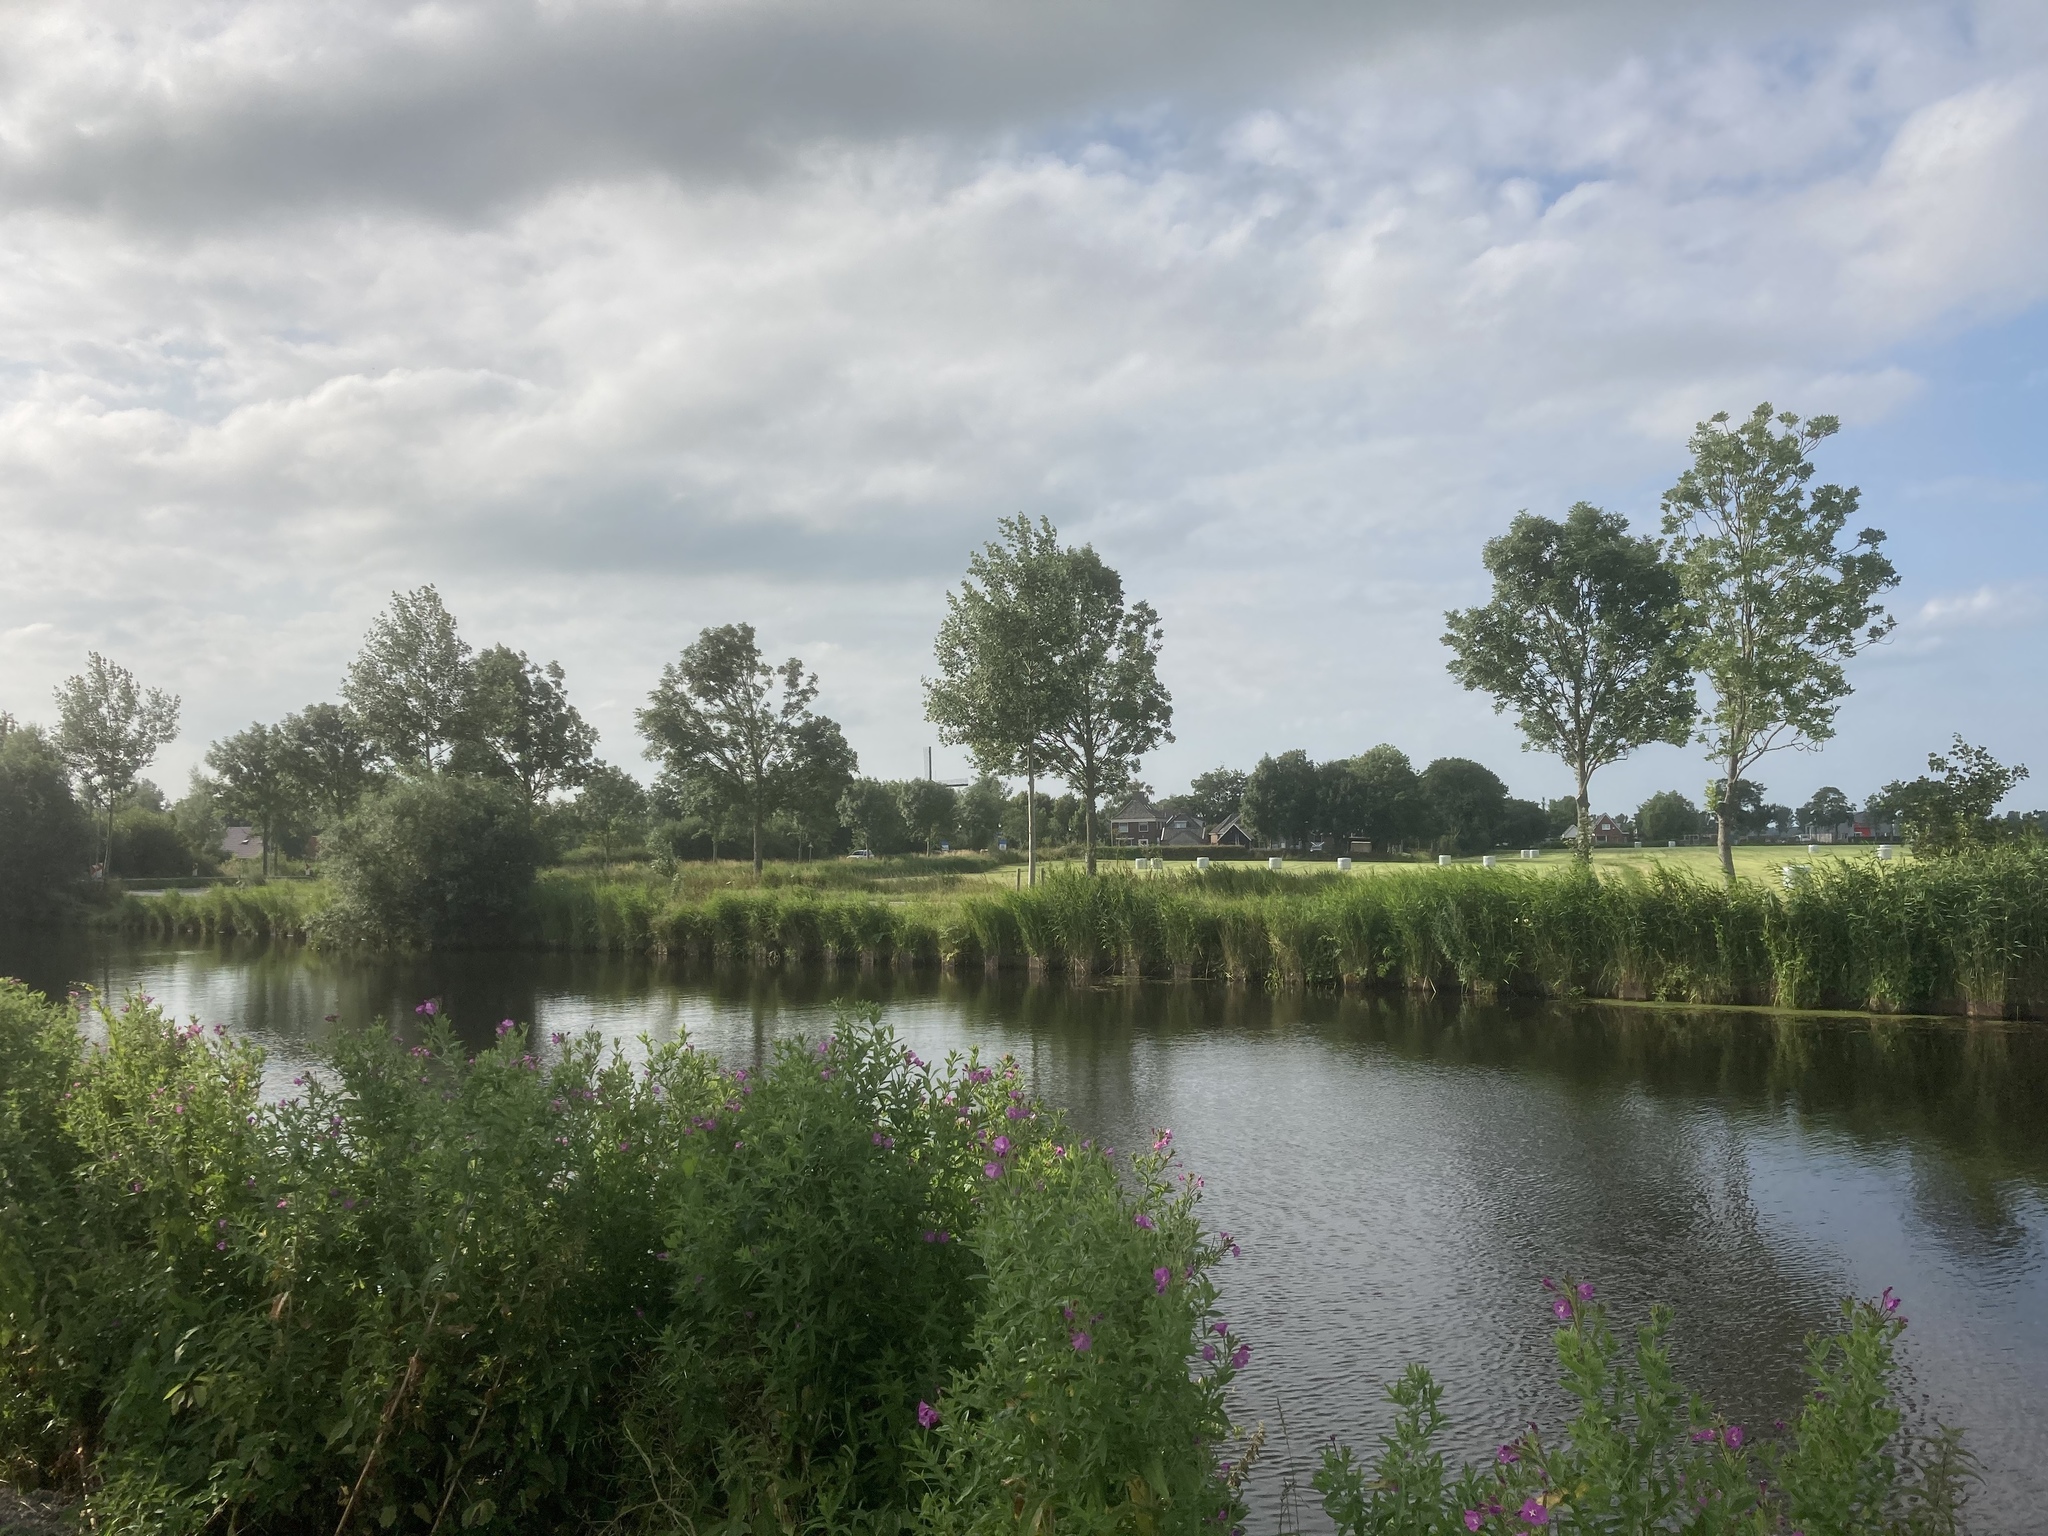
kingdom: Plantae
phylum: Tracheophyta
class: Magnoliopsida
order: Myrtales
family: Lythraceae
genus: Lythrum
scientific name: Lythrum salicaria
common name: Purple loosestrife
